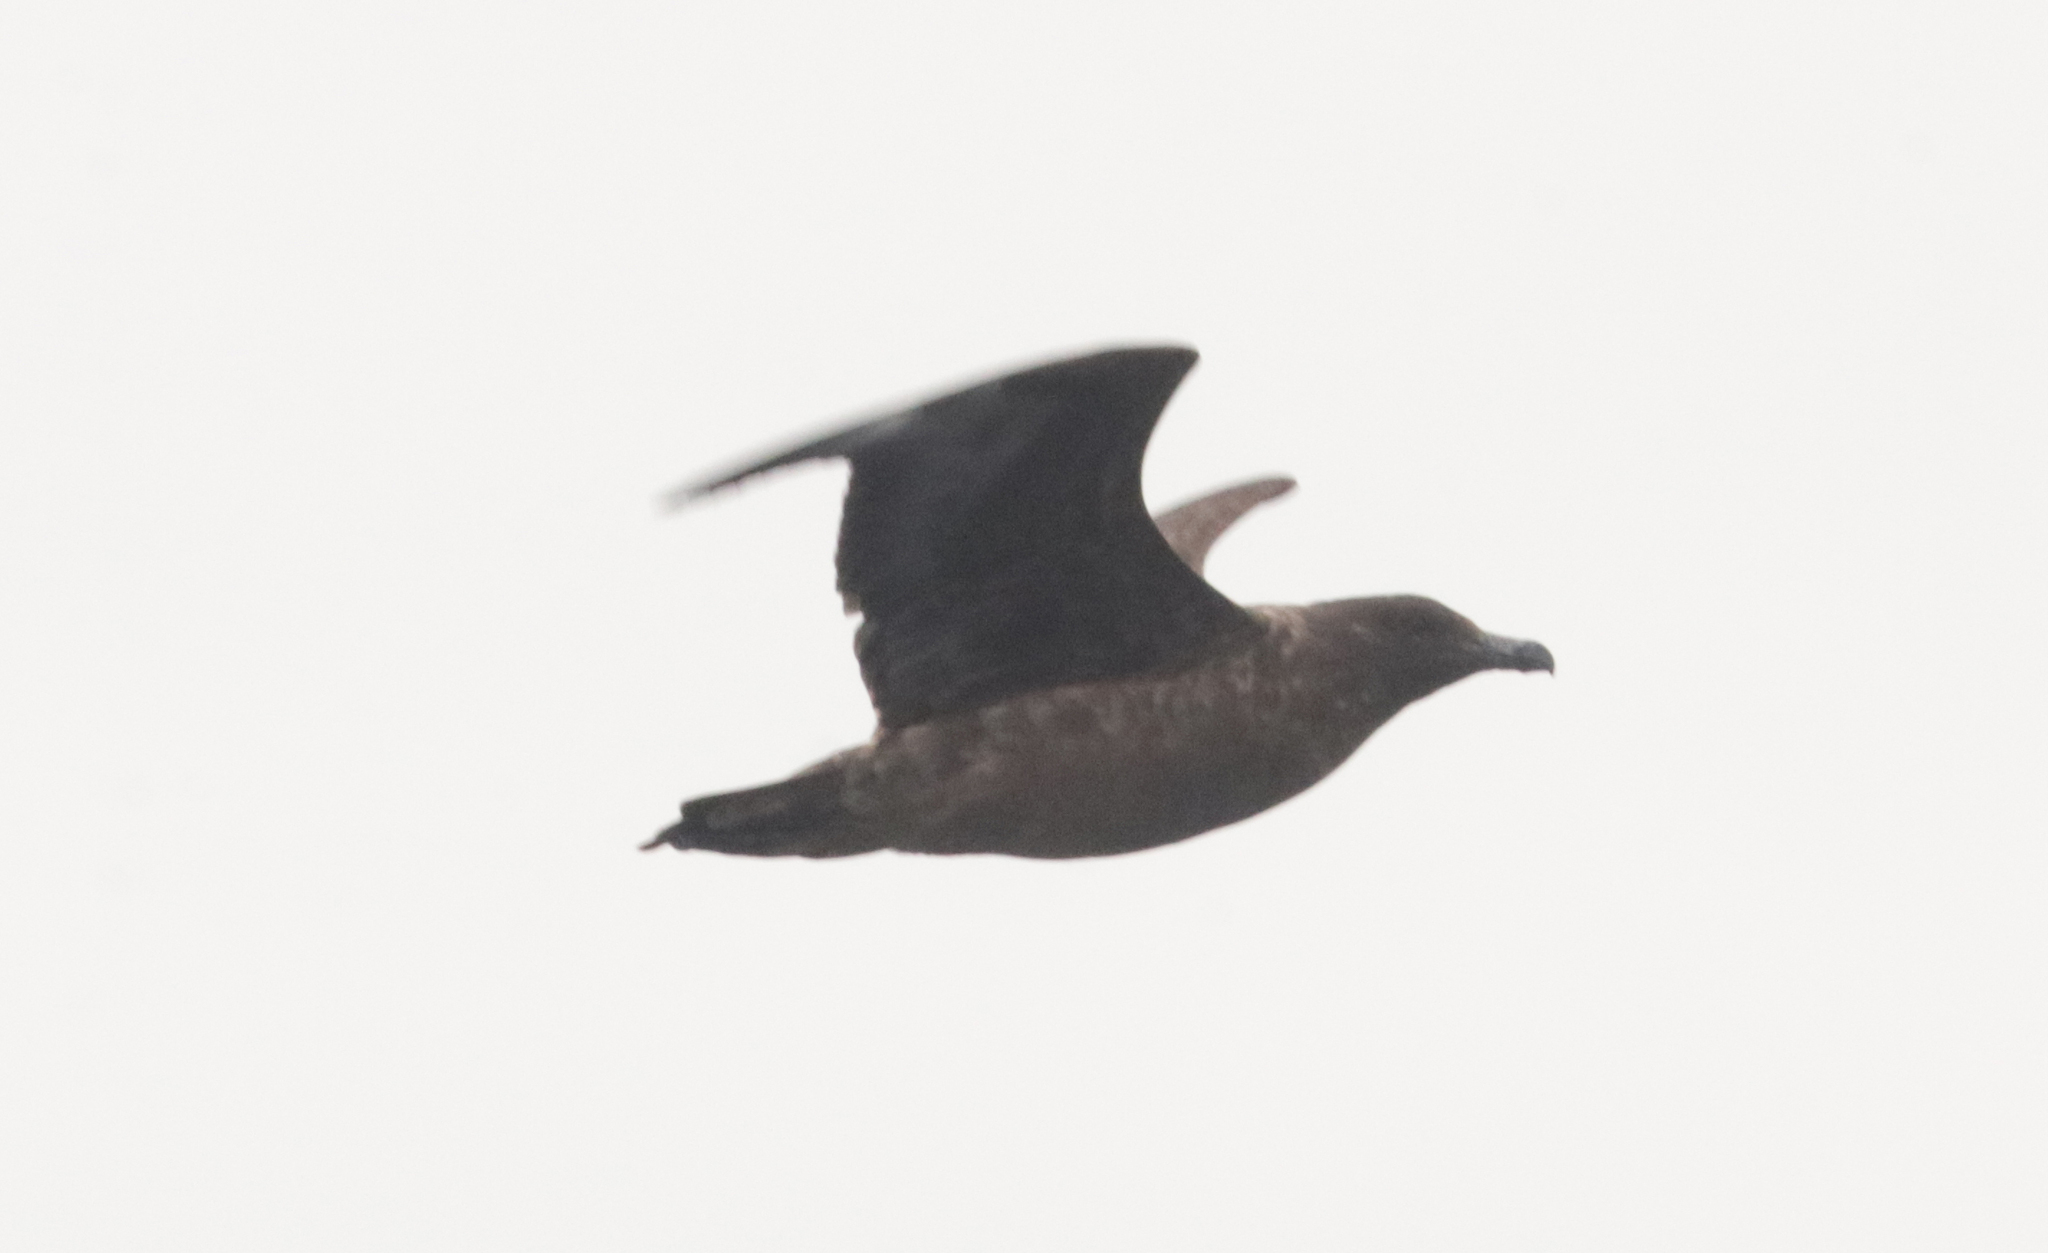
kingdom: Animalia
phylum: Chordata
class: Aves
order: Charadriiformes
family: Stercorariidae
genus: Stercorarius
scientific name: Stercorarius antarcticus
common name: Brown skua
